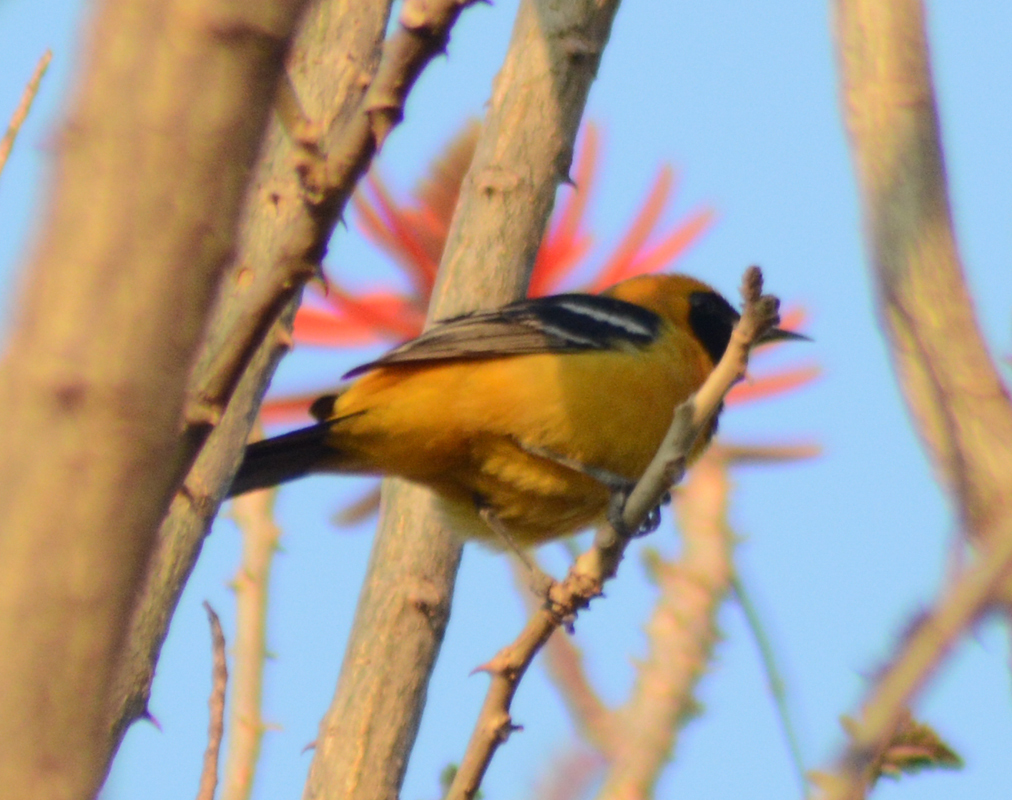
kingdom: Animalia
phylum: Chordata
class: Aves
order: Passeriformes
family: Icteridae
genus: Icterus
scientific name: Icterus cucullatus
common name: Hooded oriole
